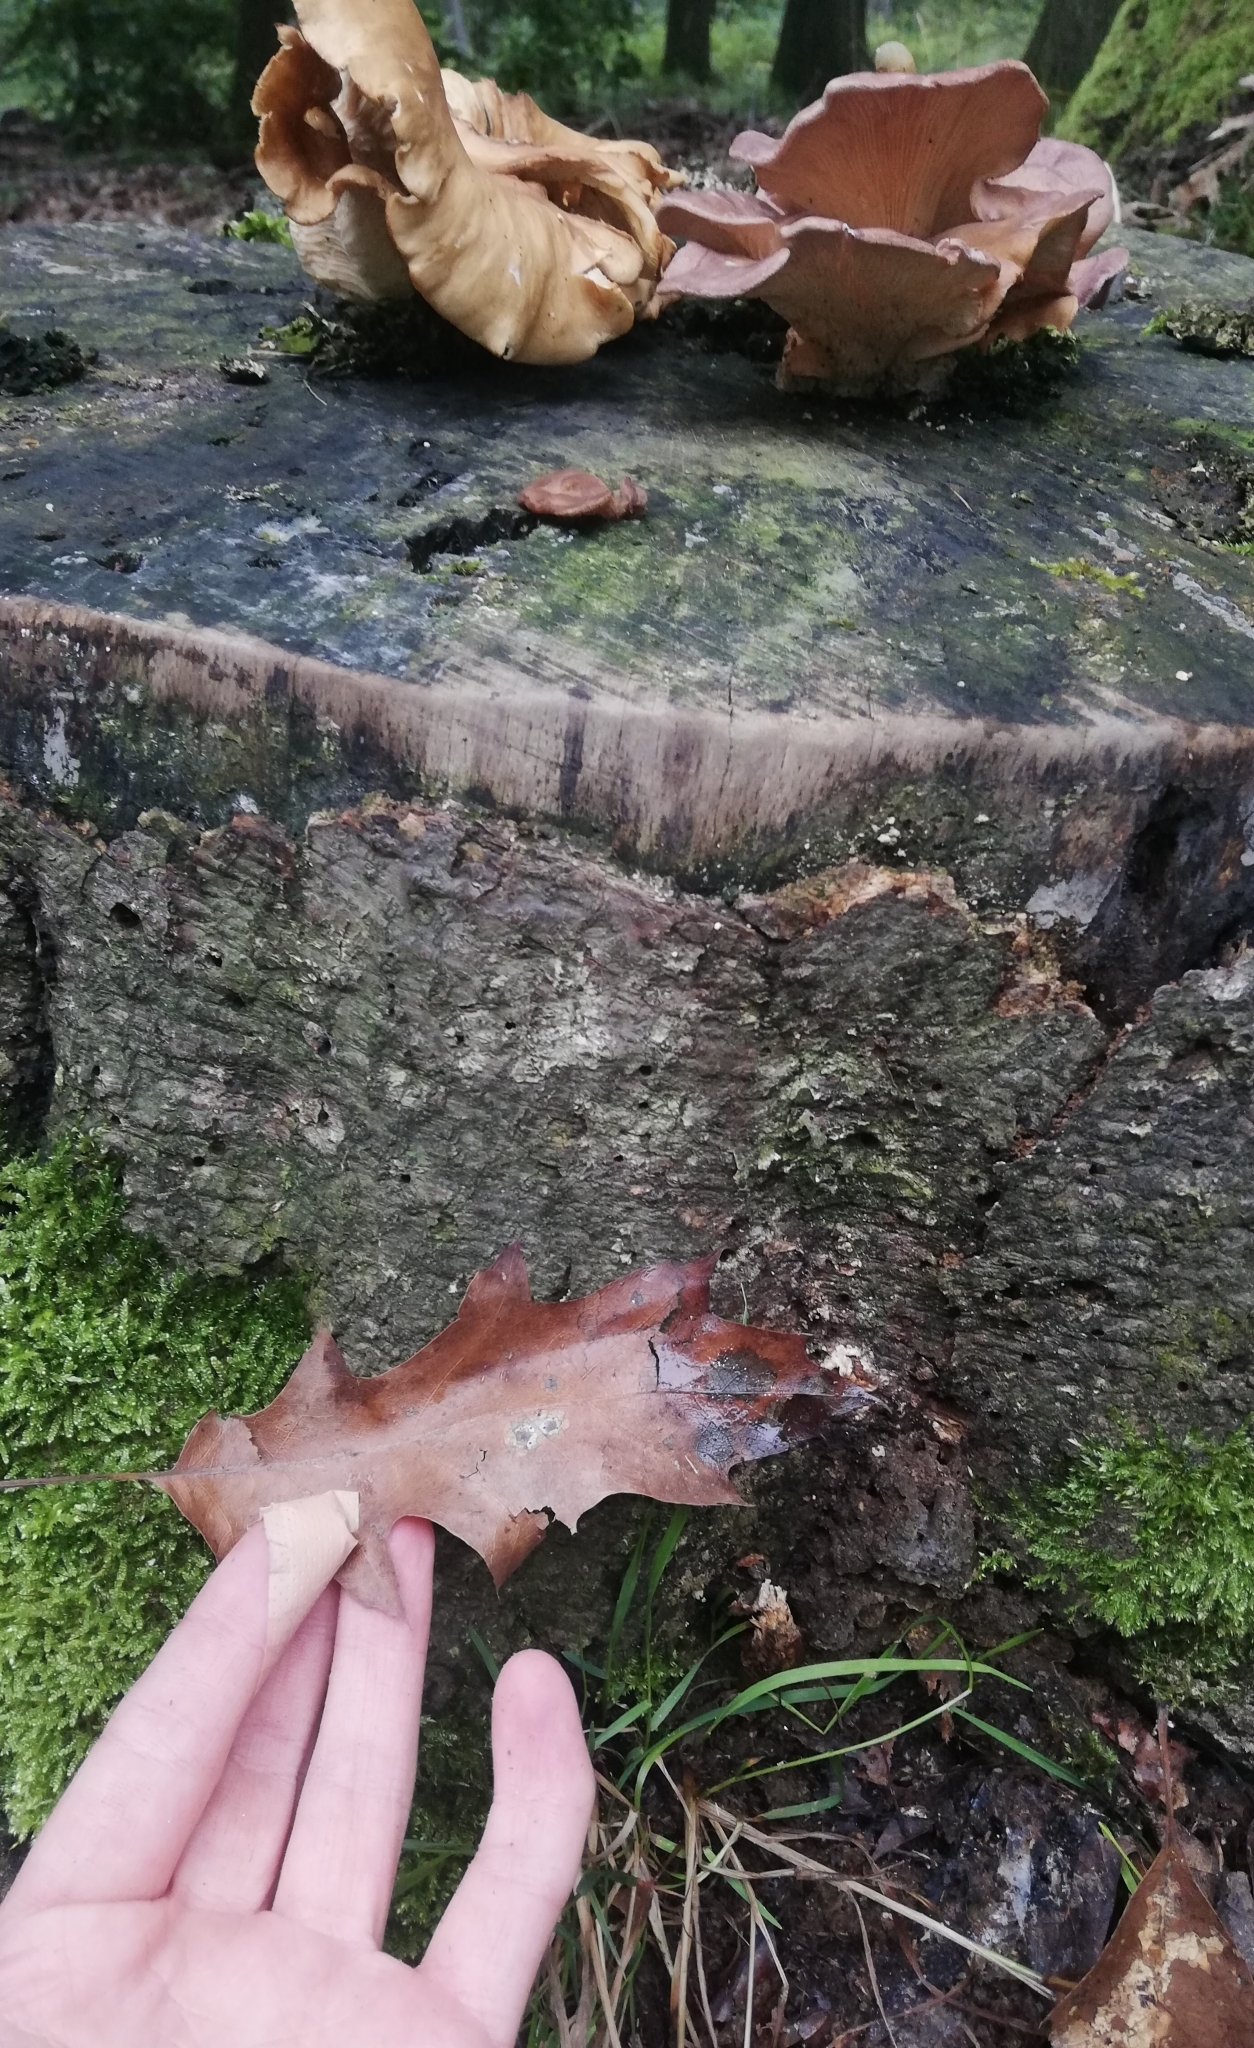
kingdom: Fungi
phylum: Basidiomycota
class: Agaricomycetes
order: Polyporales
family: Panaceae
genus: Panus
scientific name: Panus conchatus
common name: Lilac oysterling
